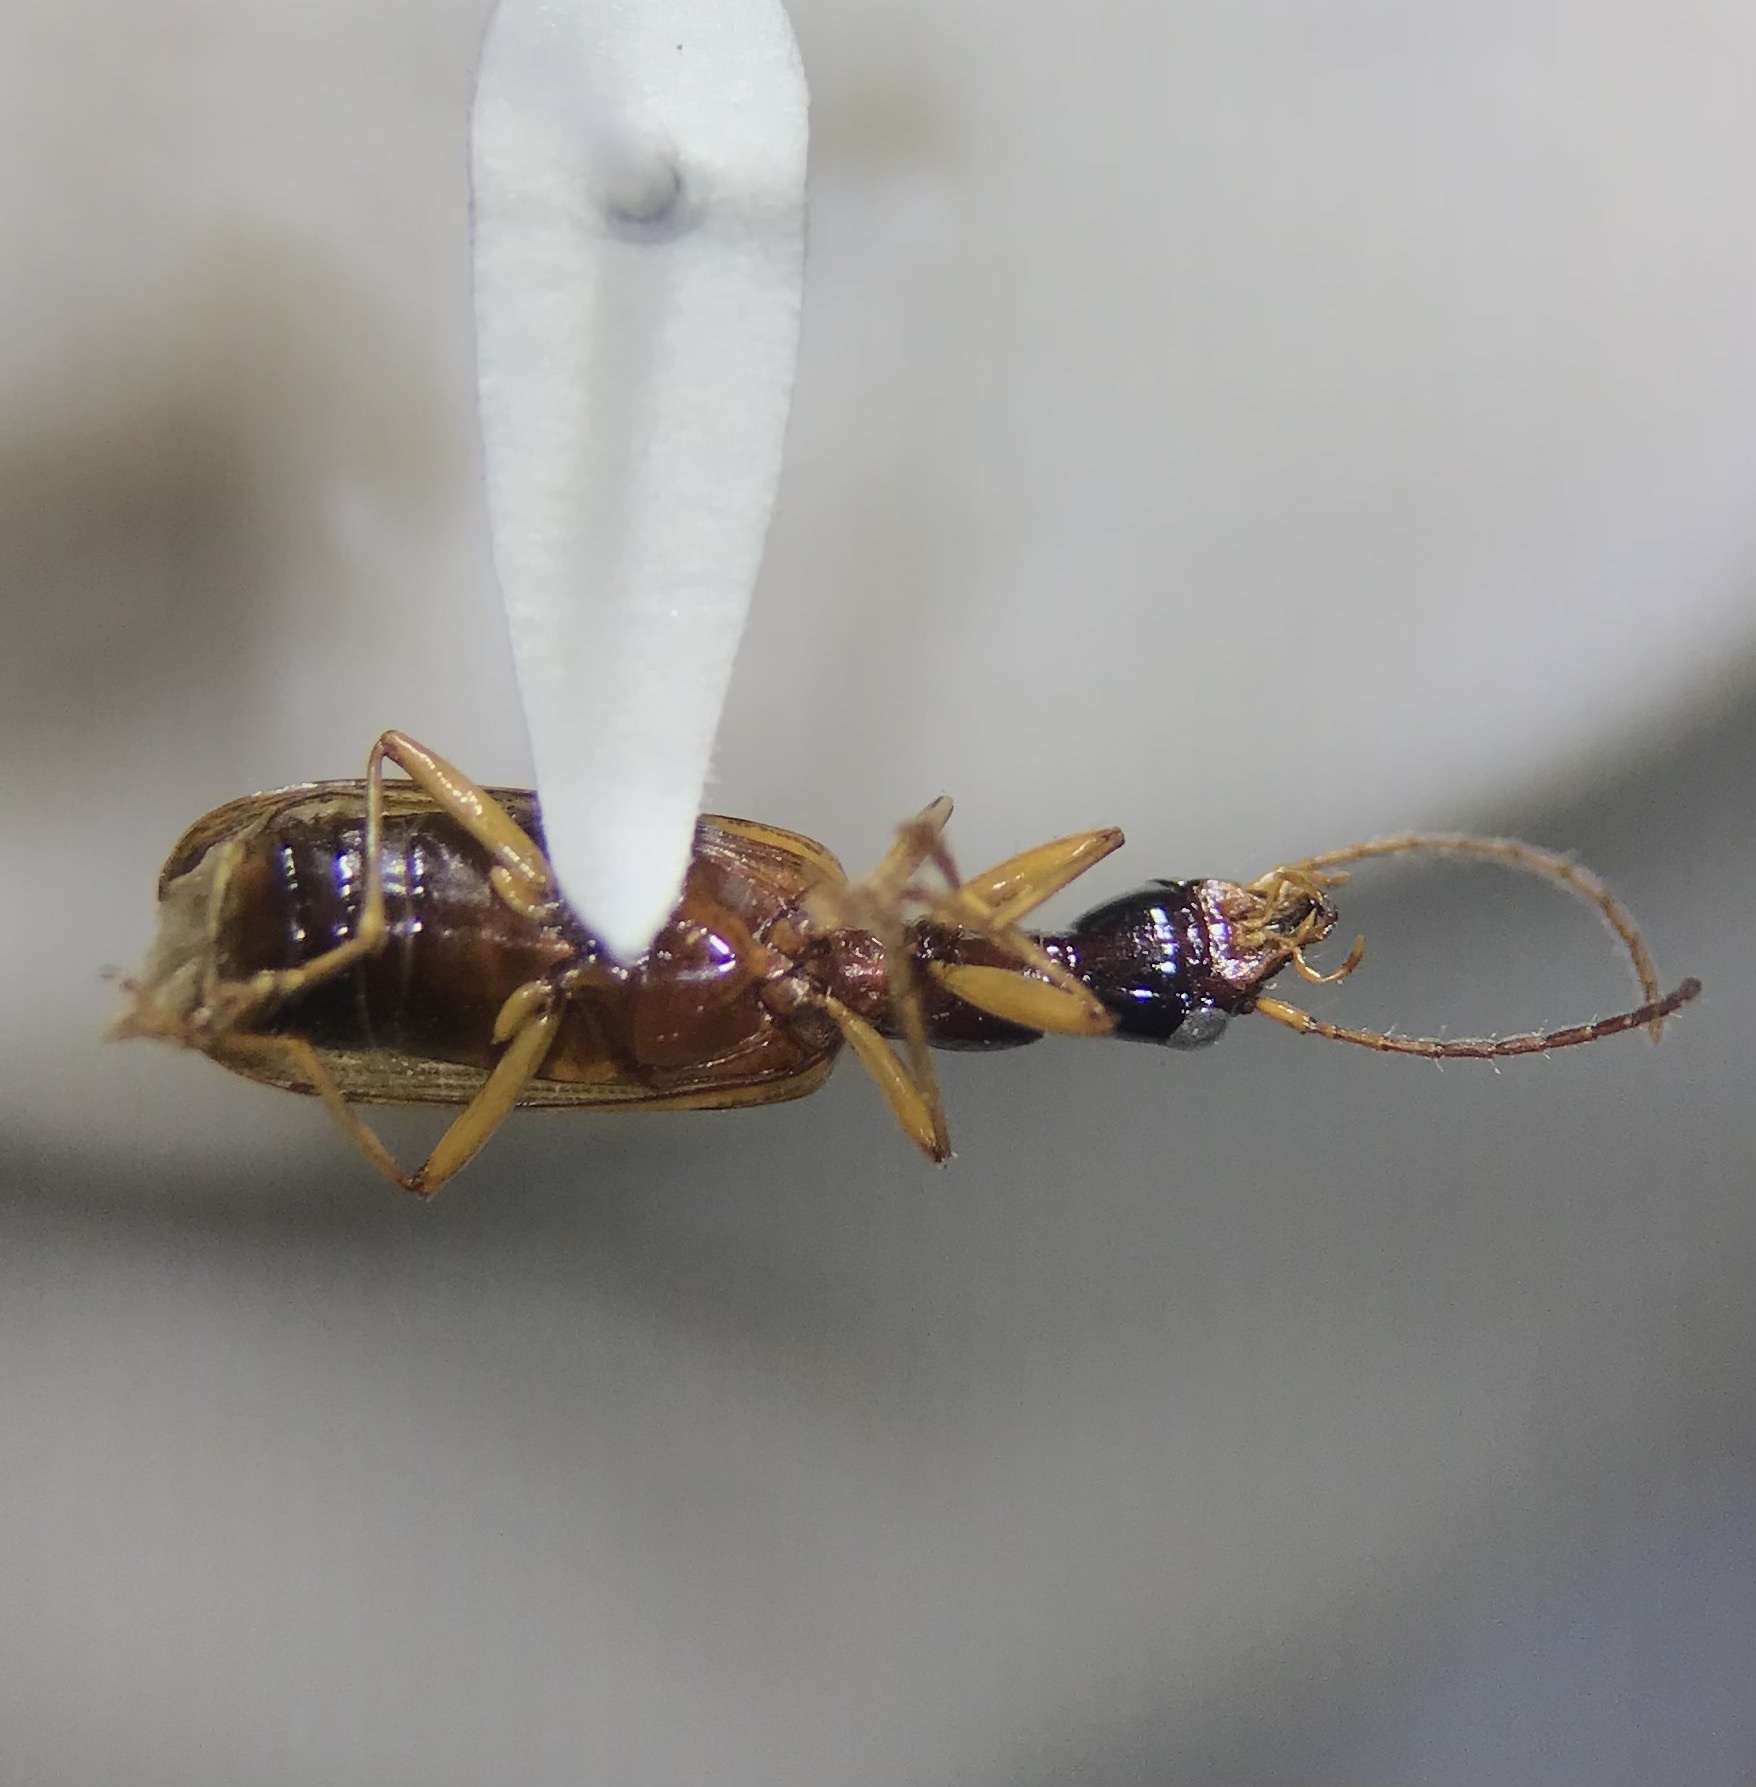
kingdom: Animalia
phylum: Arthropoda
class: Insecta
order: Coleoptera
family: Carabidae
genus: Leptotrachelus
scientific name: Leptotrachelus dorsalis
